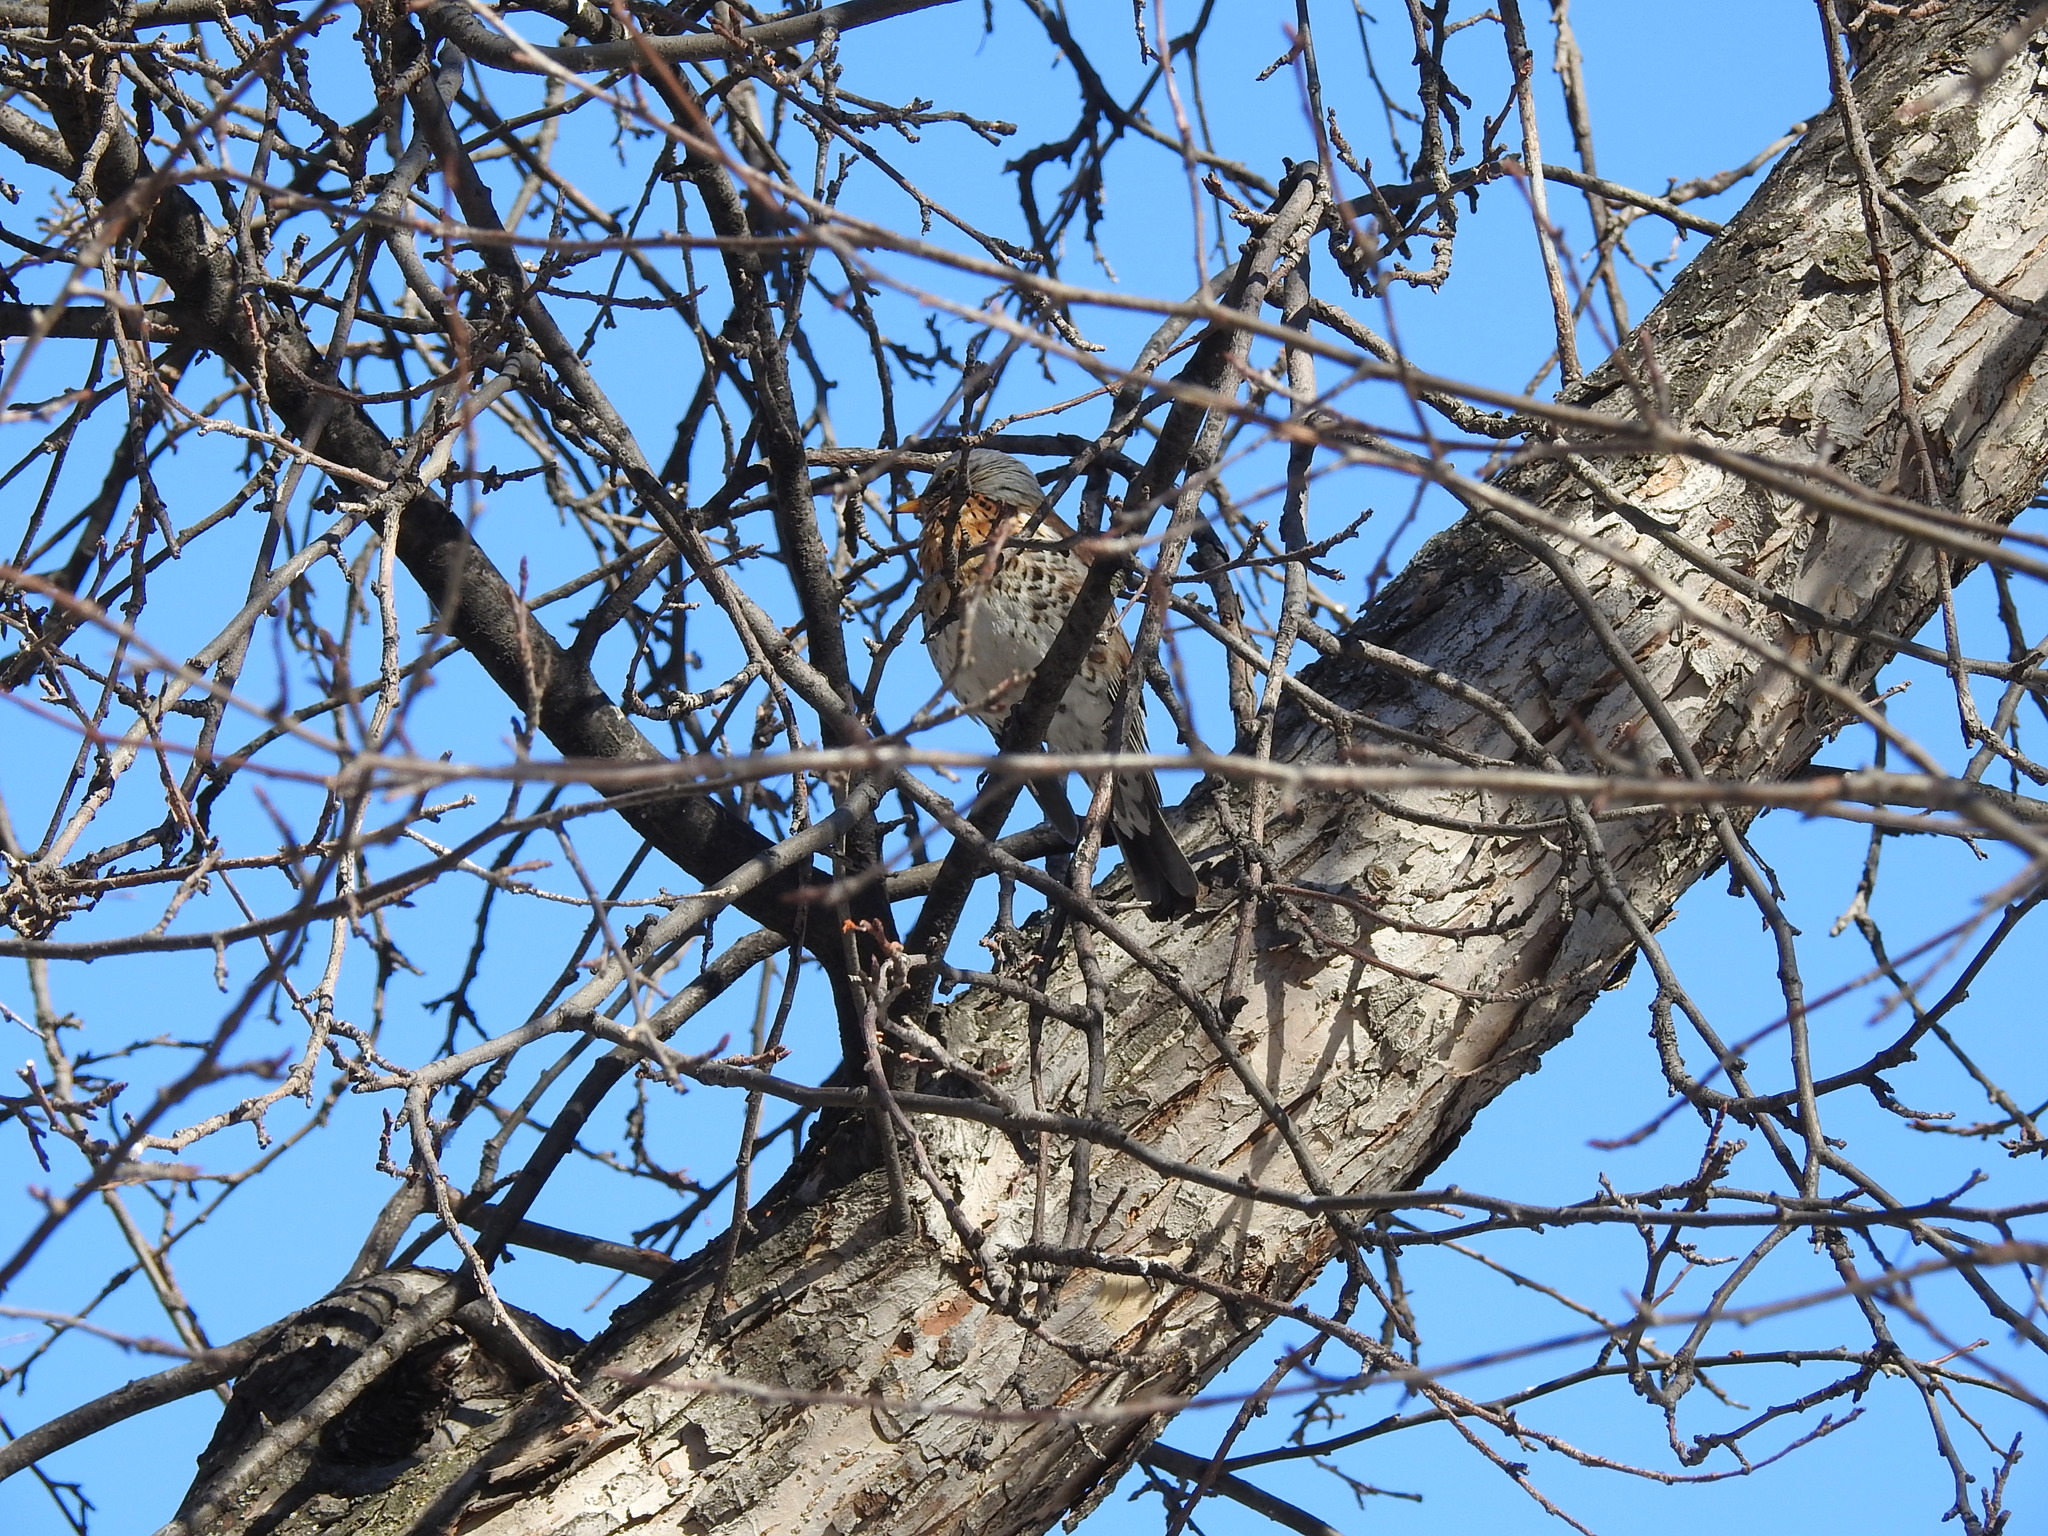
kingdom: Animalia
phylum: Chordata
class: Aves
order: Passeriformes
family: Turdidae
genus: Turdus
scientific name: Turdus pilaris
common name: Fieldfare
